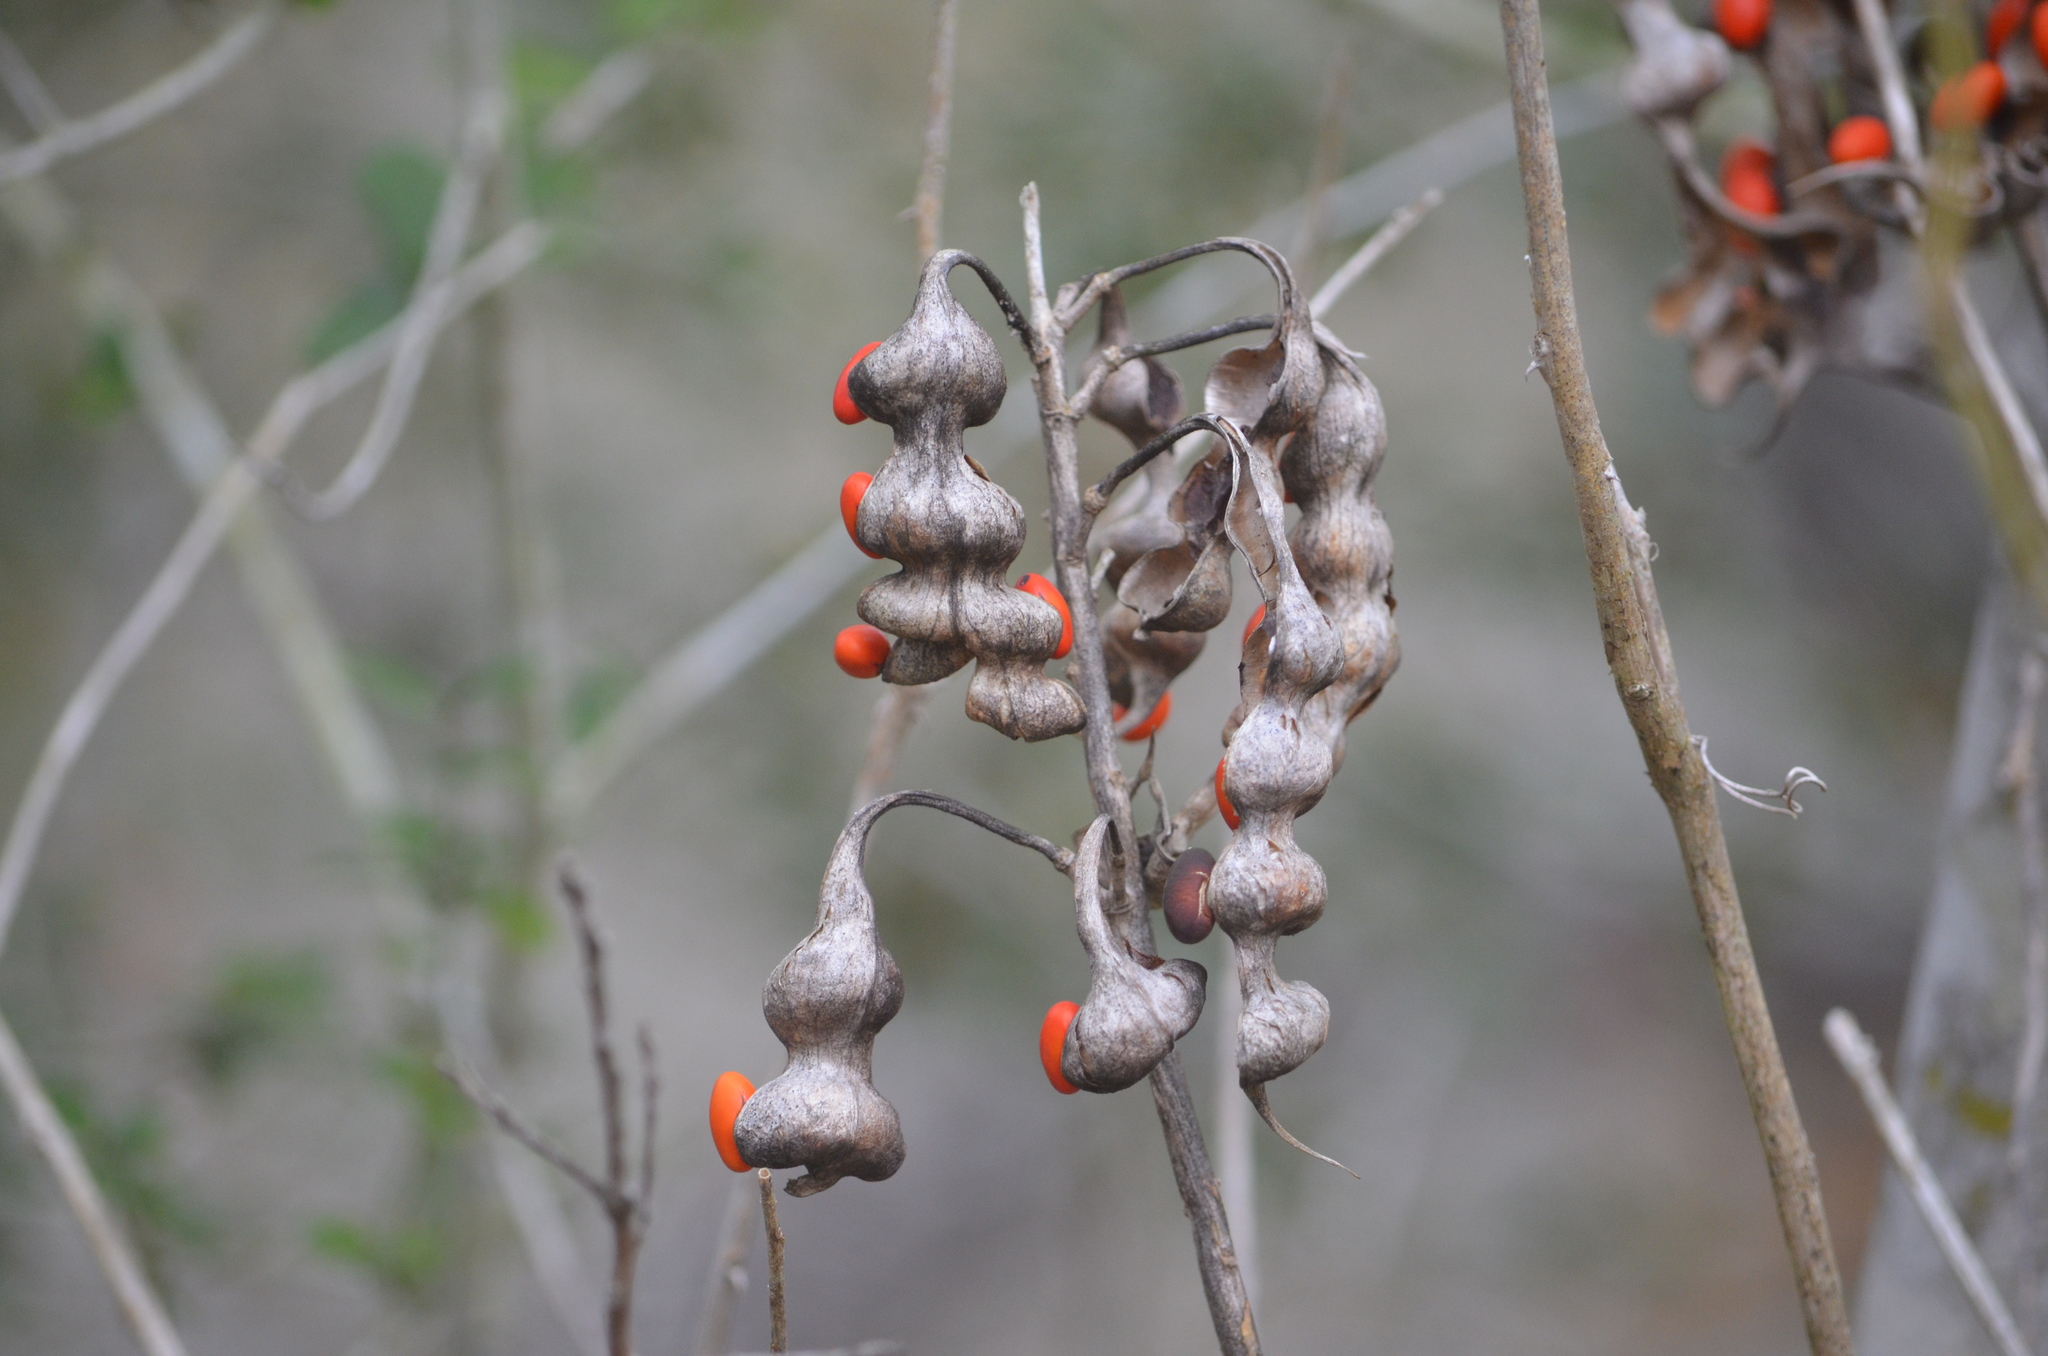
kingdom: Plantae
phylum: Tracheophyta
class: Magnoliopsida
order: Fabales
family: Fabaceae
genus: Erythrina
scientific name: Erythrina herbacea
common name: Coral-bean
